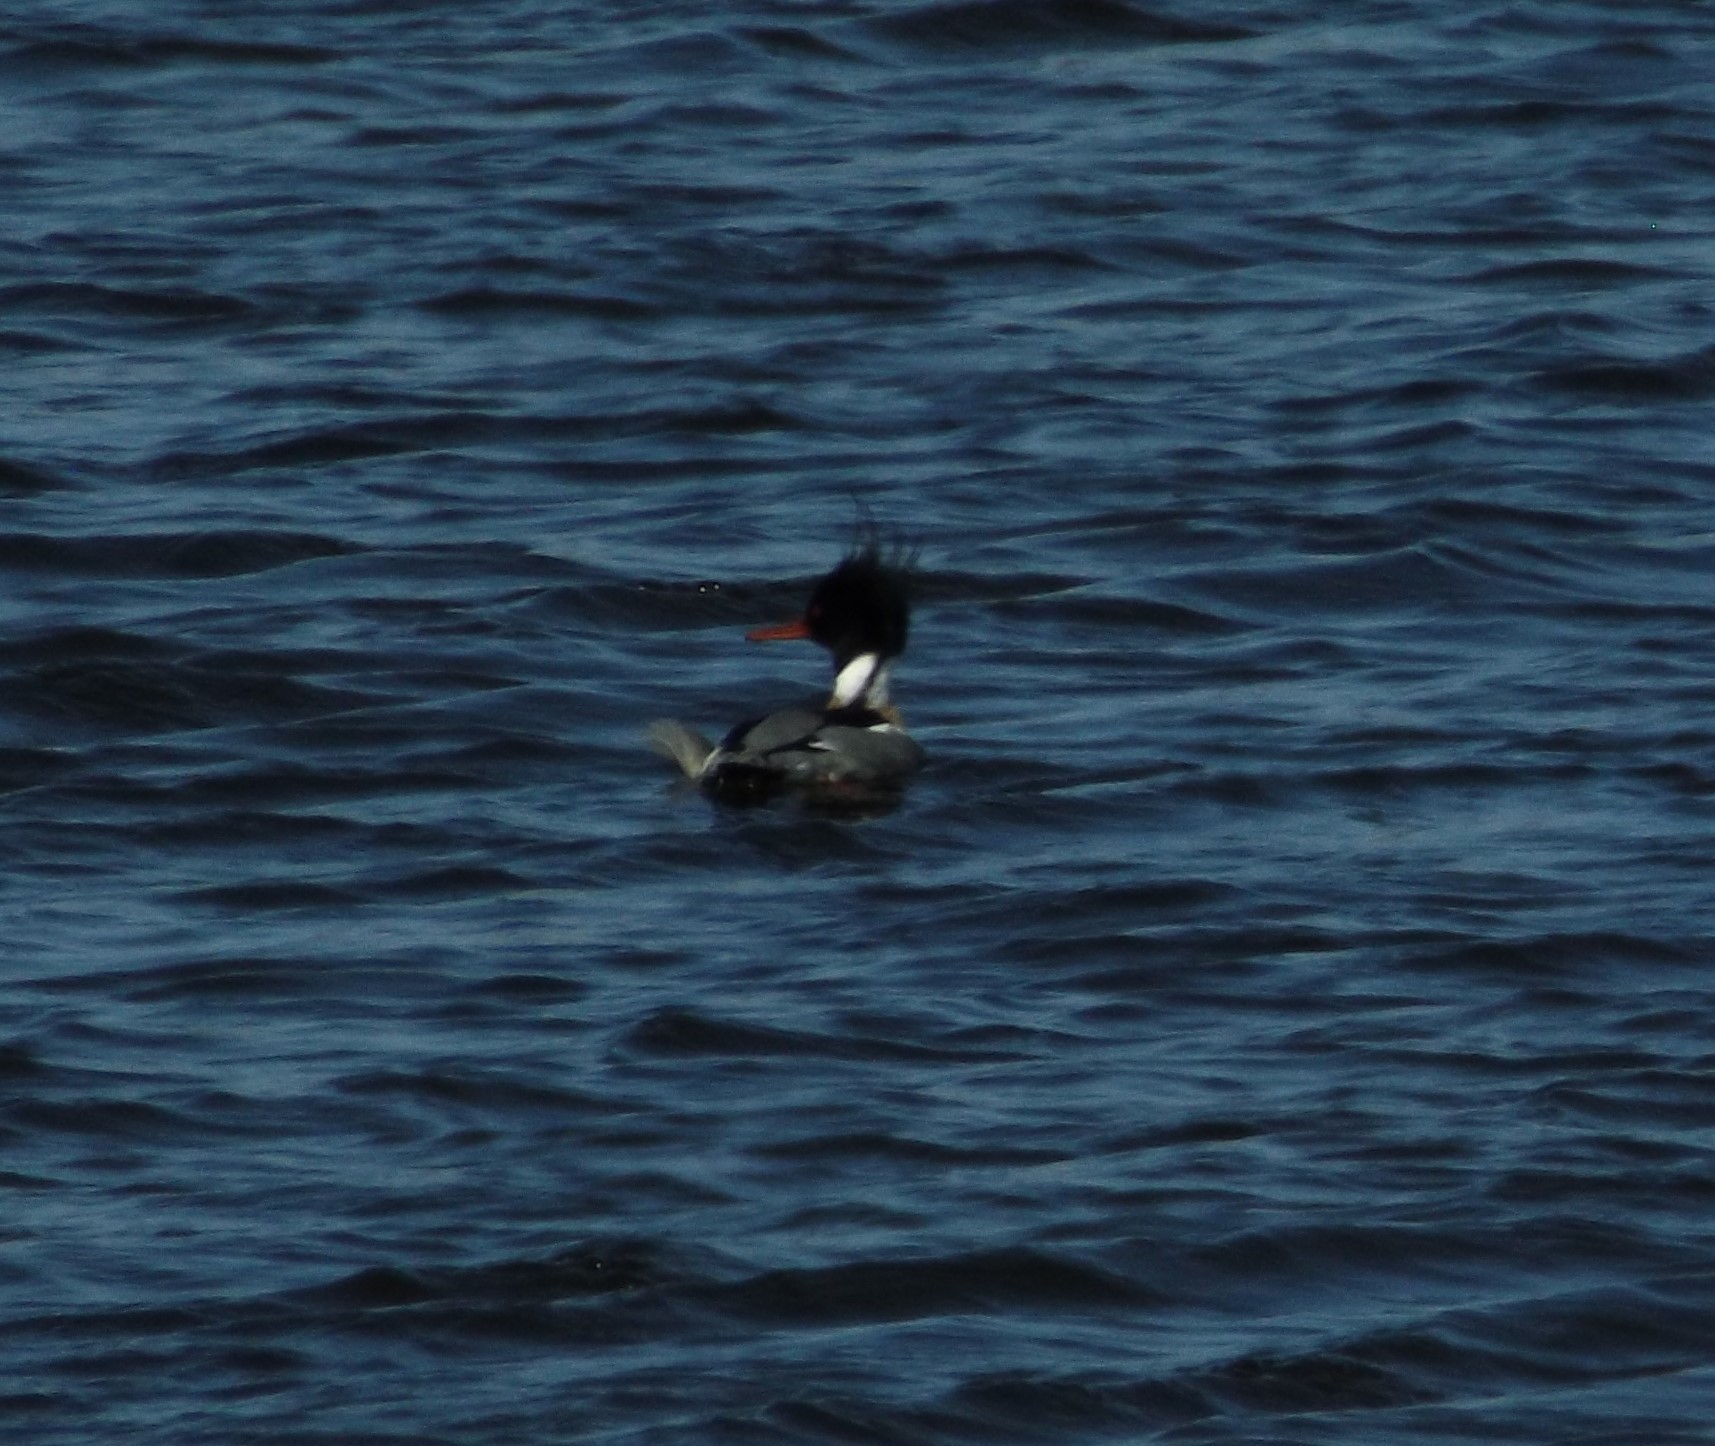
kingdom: Animalia
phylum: Chordata
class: Aves
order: Anseriformes
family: Anatidae
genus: Mergus
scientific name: Mergus serrator
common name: Red-breasted merganser
